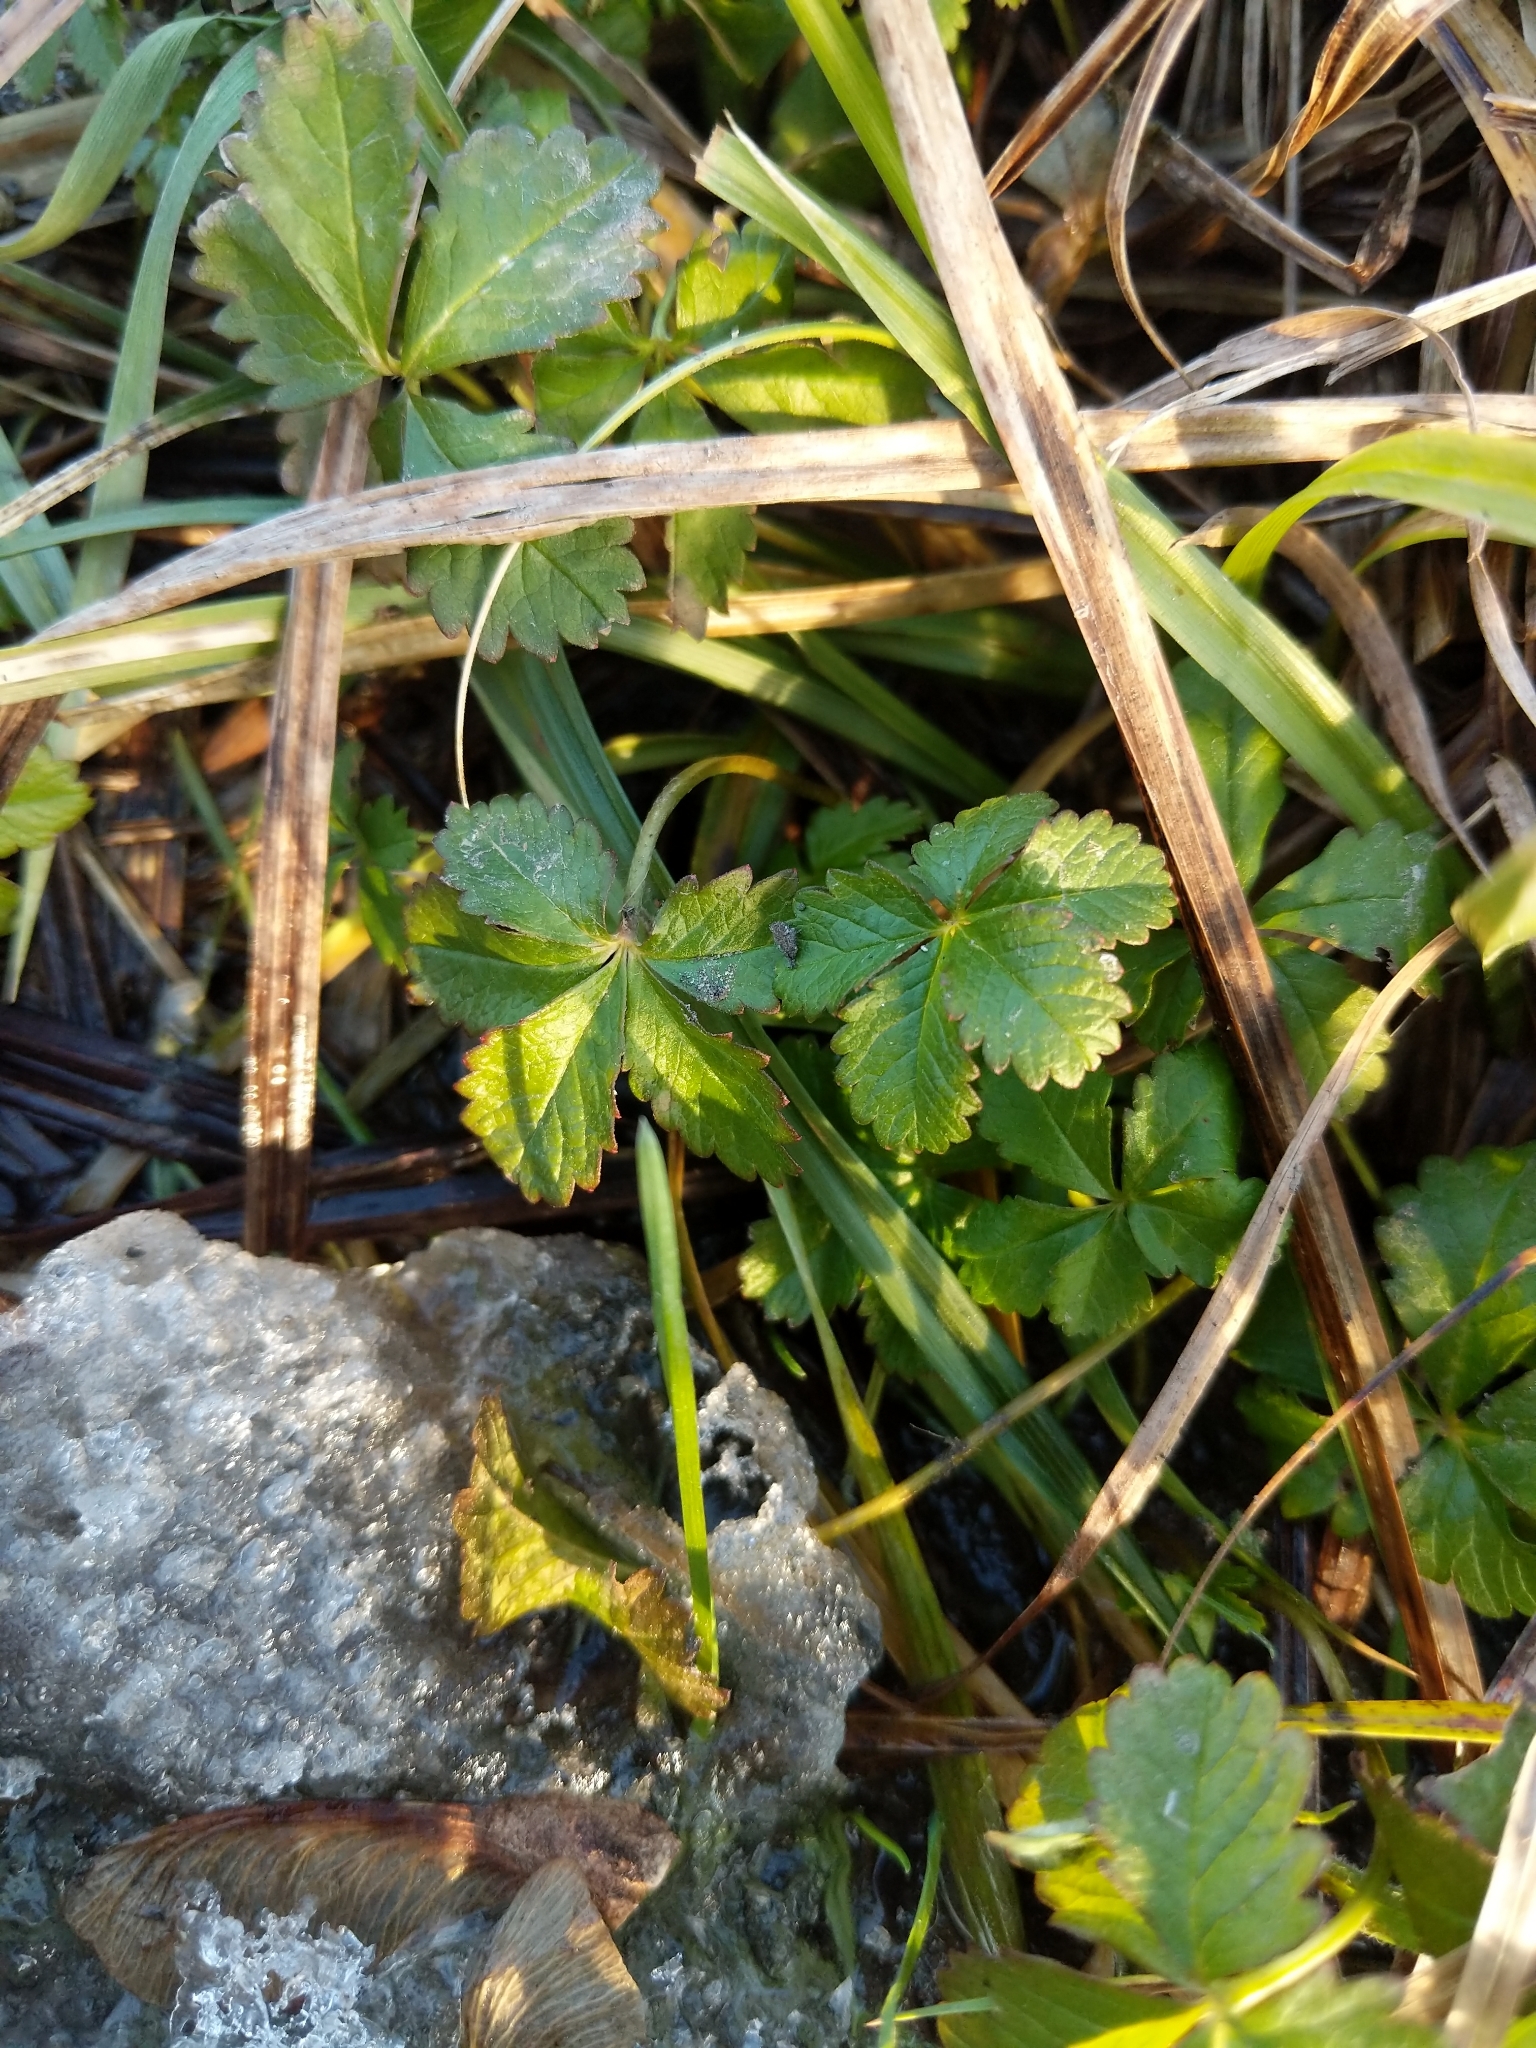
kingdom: Plantae
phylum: Tracheophyta
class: Magnoliopsida
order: Rosales
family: Rosaceae
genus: Potentilla
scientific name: Potentilla reptans
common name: Creeping cinquefoil
